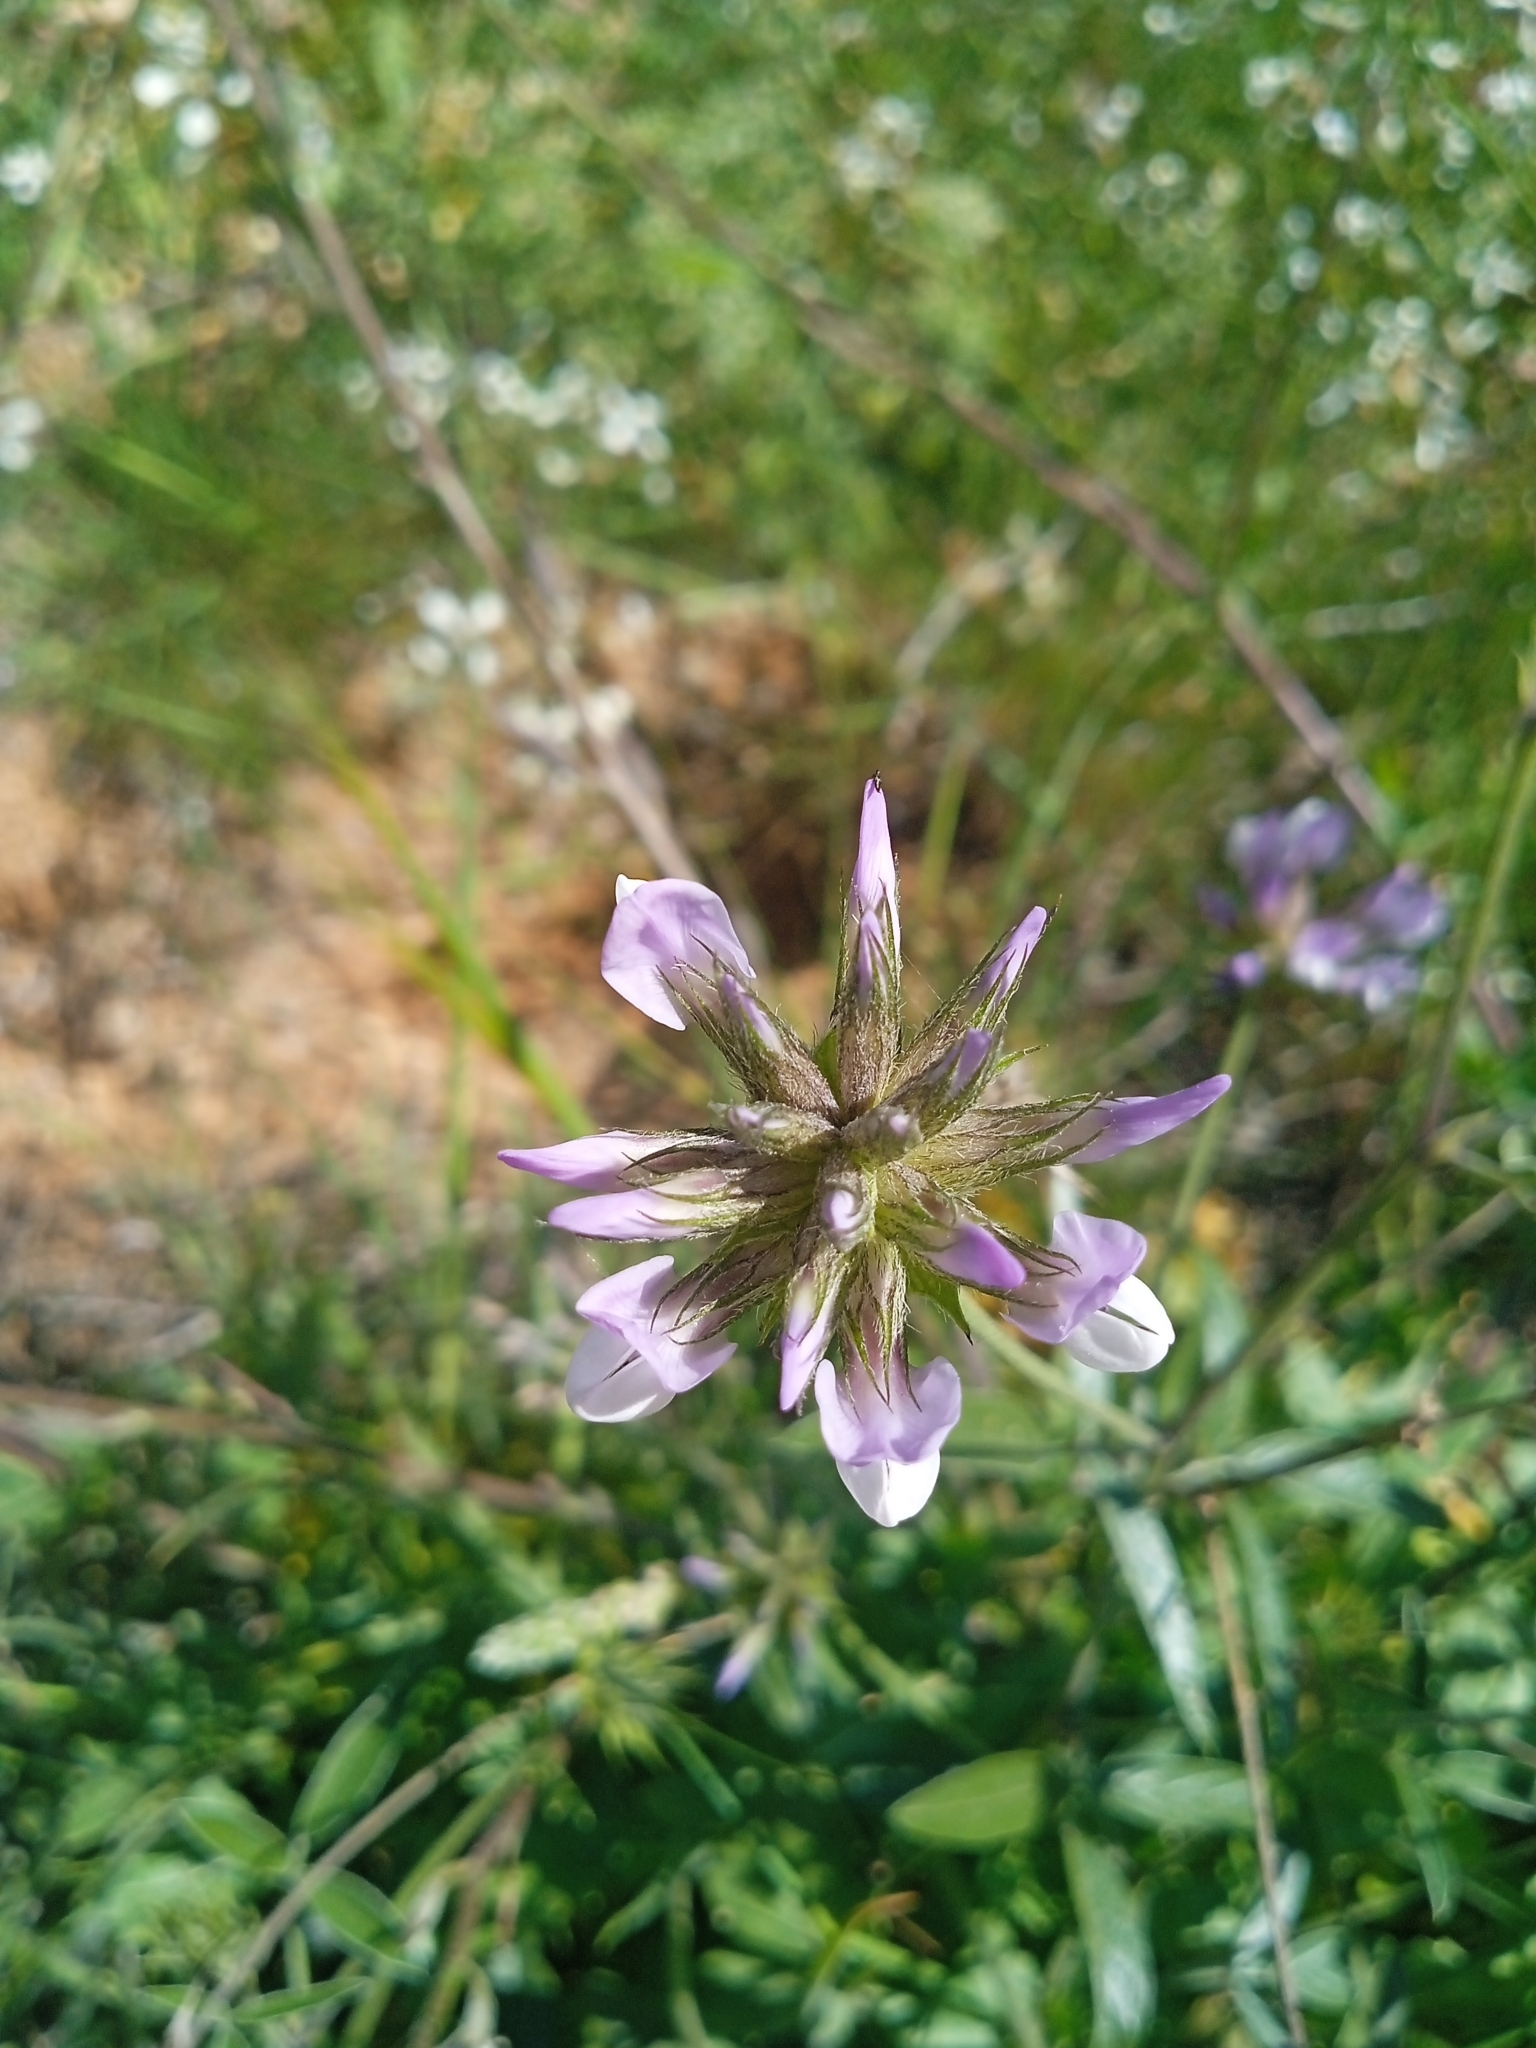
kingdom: Plantae
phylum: Tracheophyta
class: Magnoliopsida
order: Fabales
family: Fabaceae
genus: Bituminaria
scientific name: Bituminaria bituminosa
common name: Arabian pea
